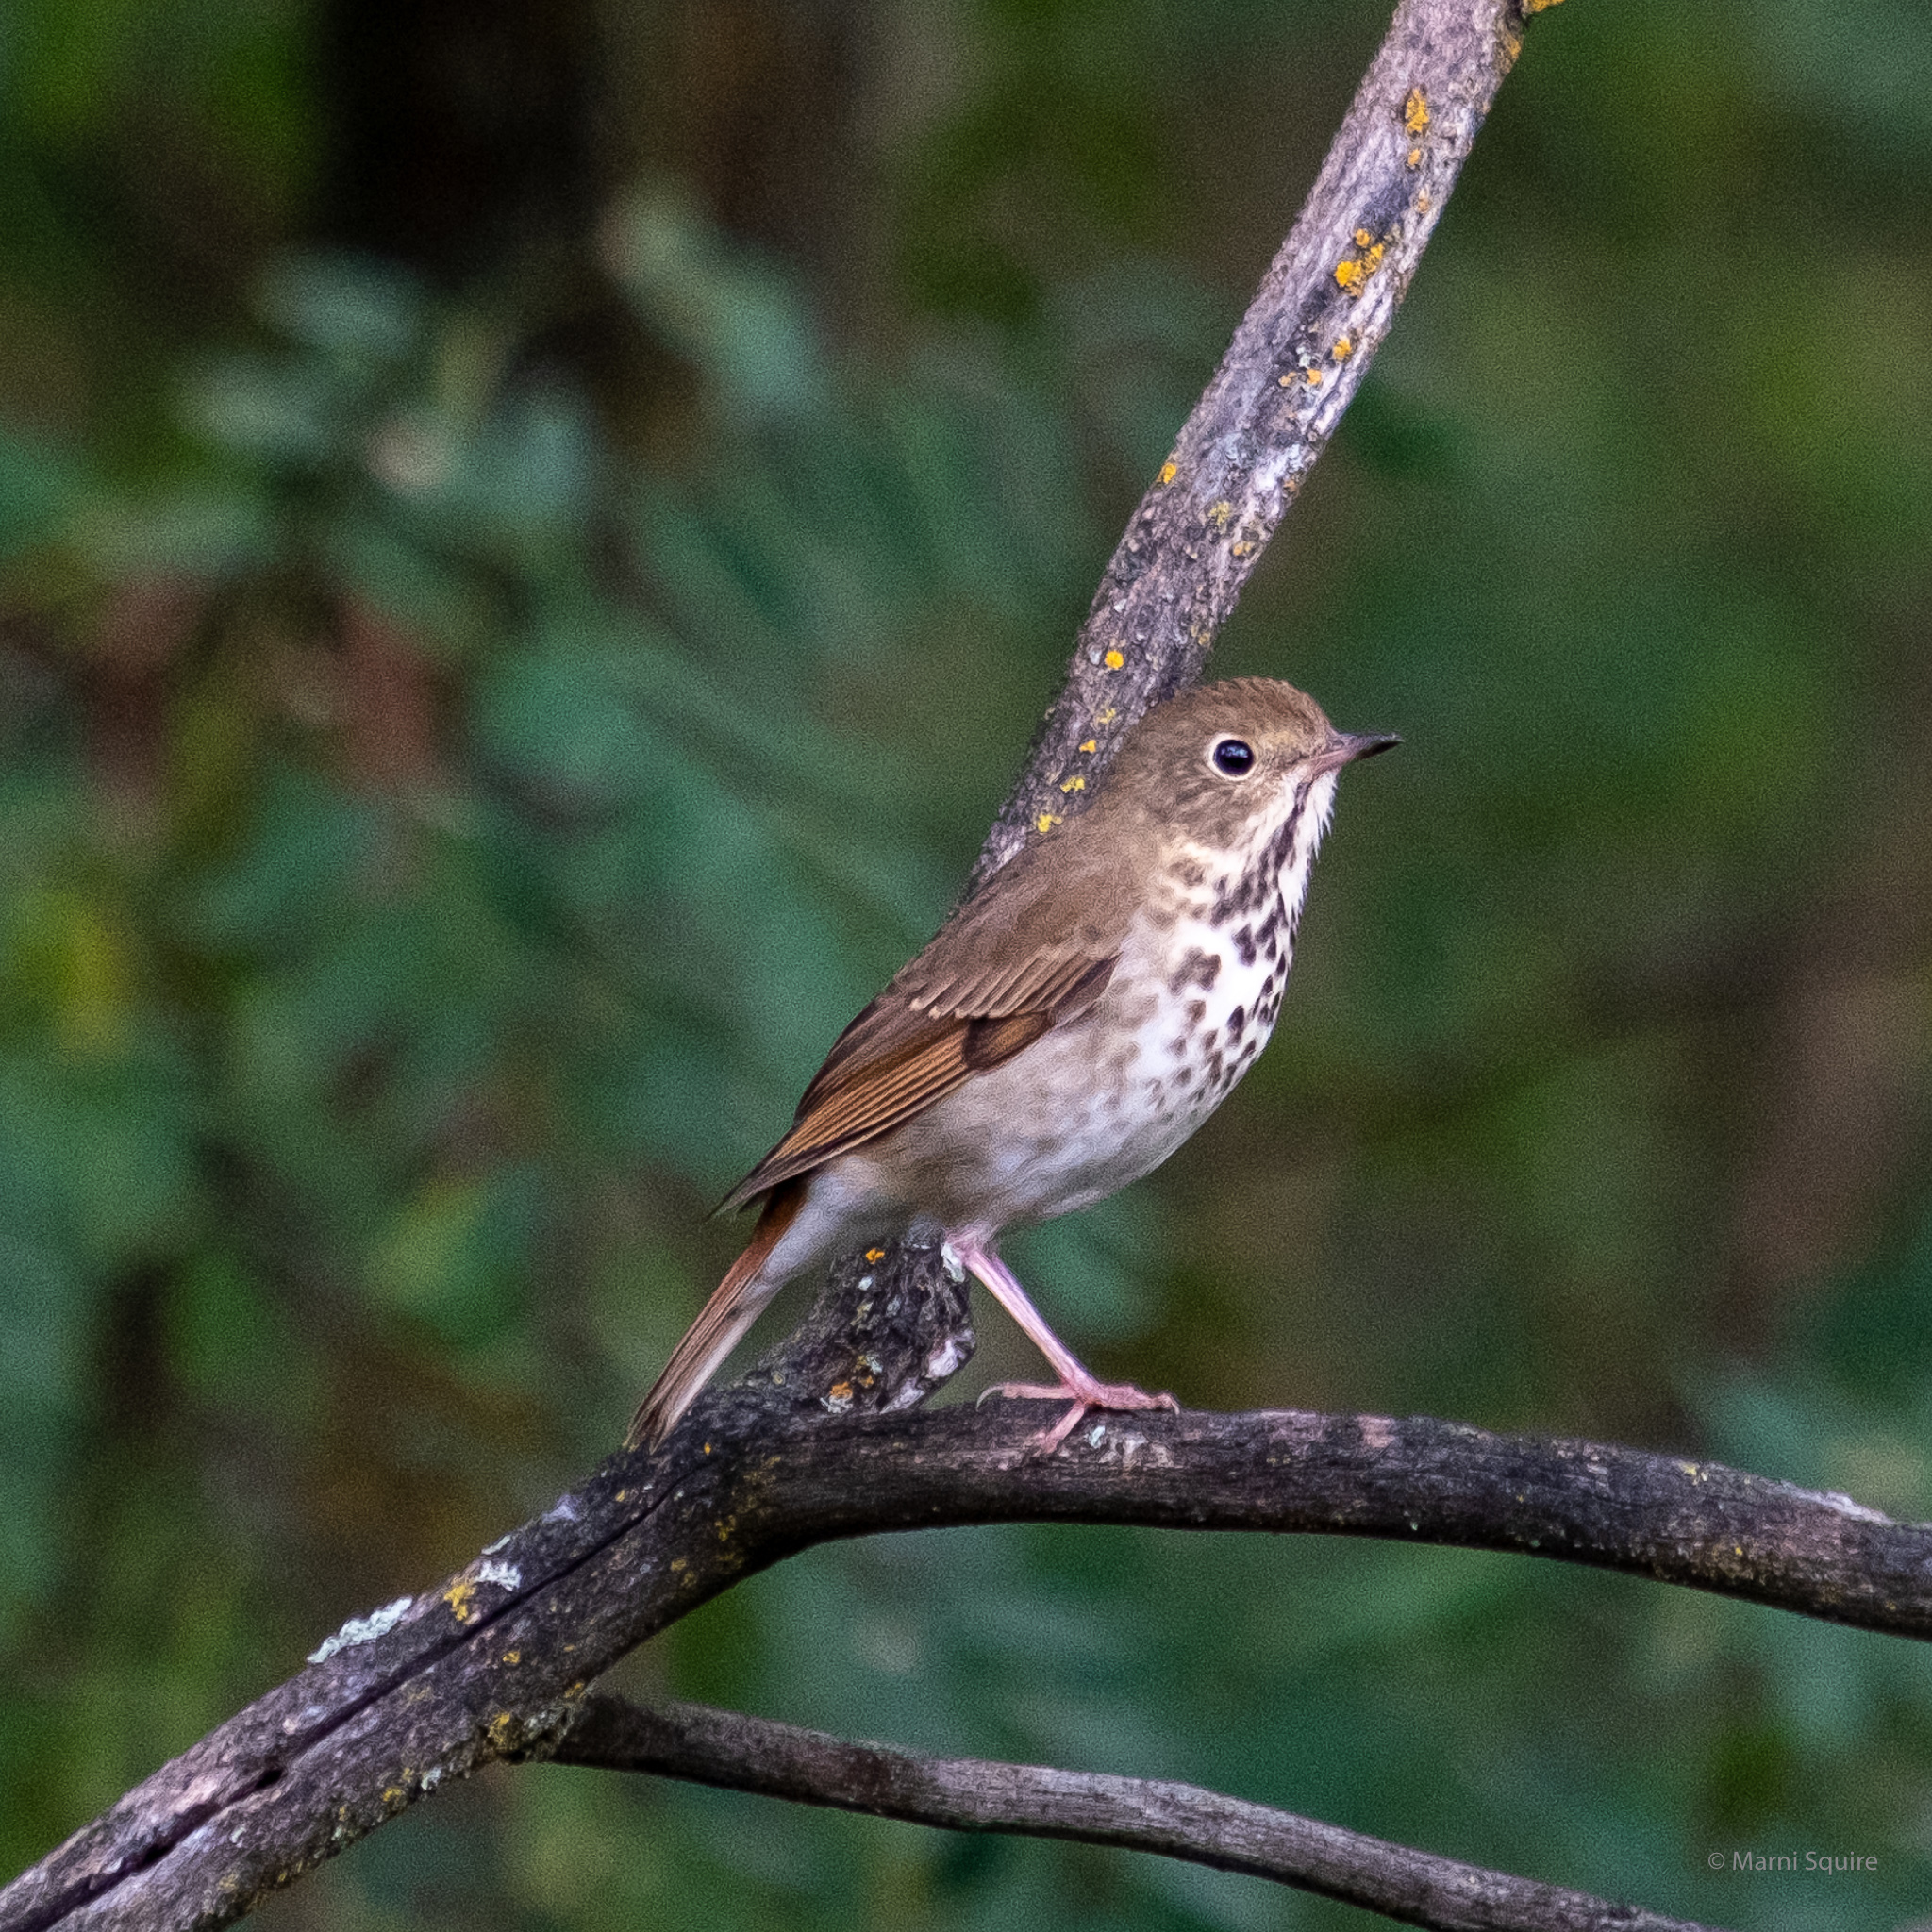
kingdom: Animalia
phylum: Chordata
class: Aves
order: Passeriformes
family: Turdidae
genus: Catharus
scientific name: Catharus guttatus
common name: Hermit thrush
